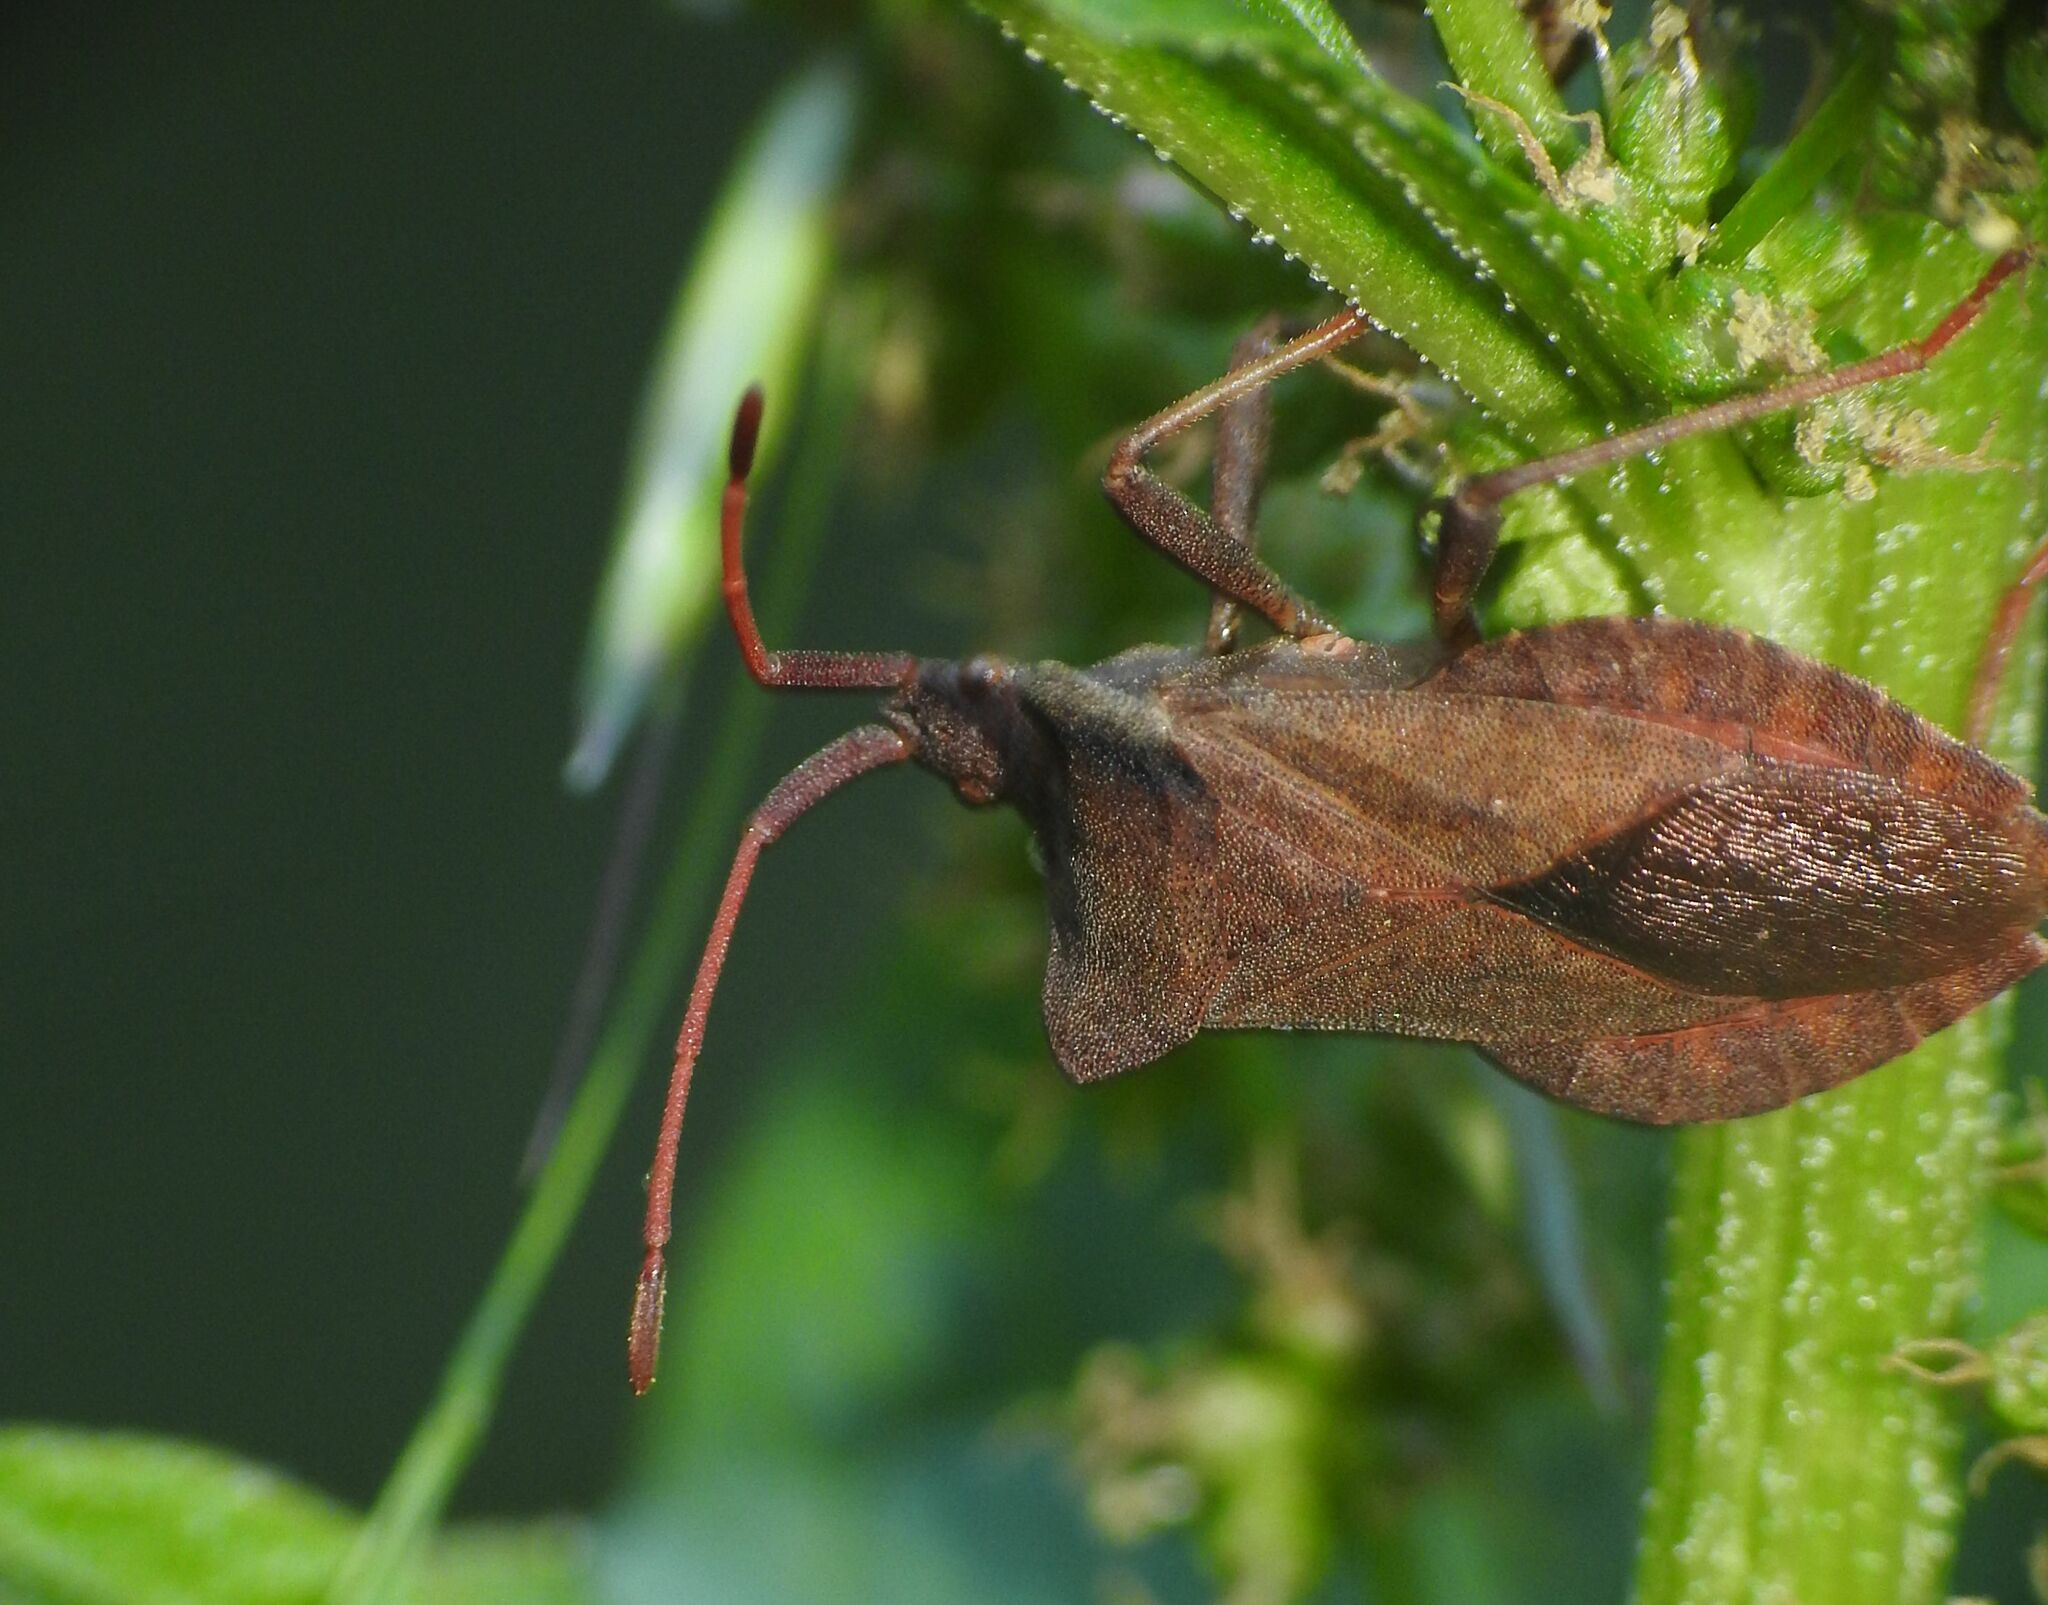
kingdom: Animalia
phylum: Arthropoda
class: Insecta
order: Hemiptera
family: Coreidae
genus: Coreus
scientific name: Coreus marginatus
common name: Dock bug
